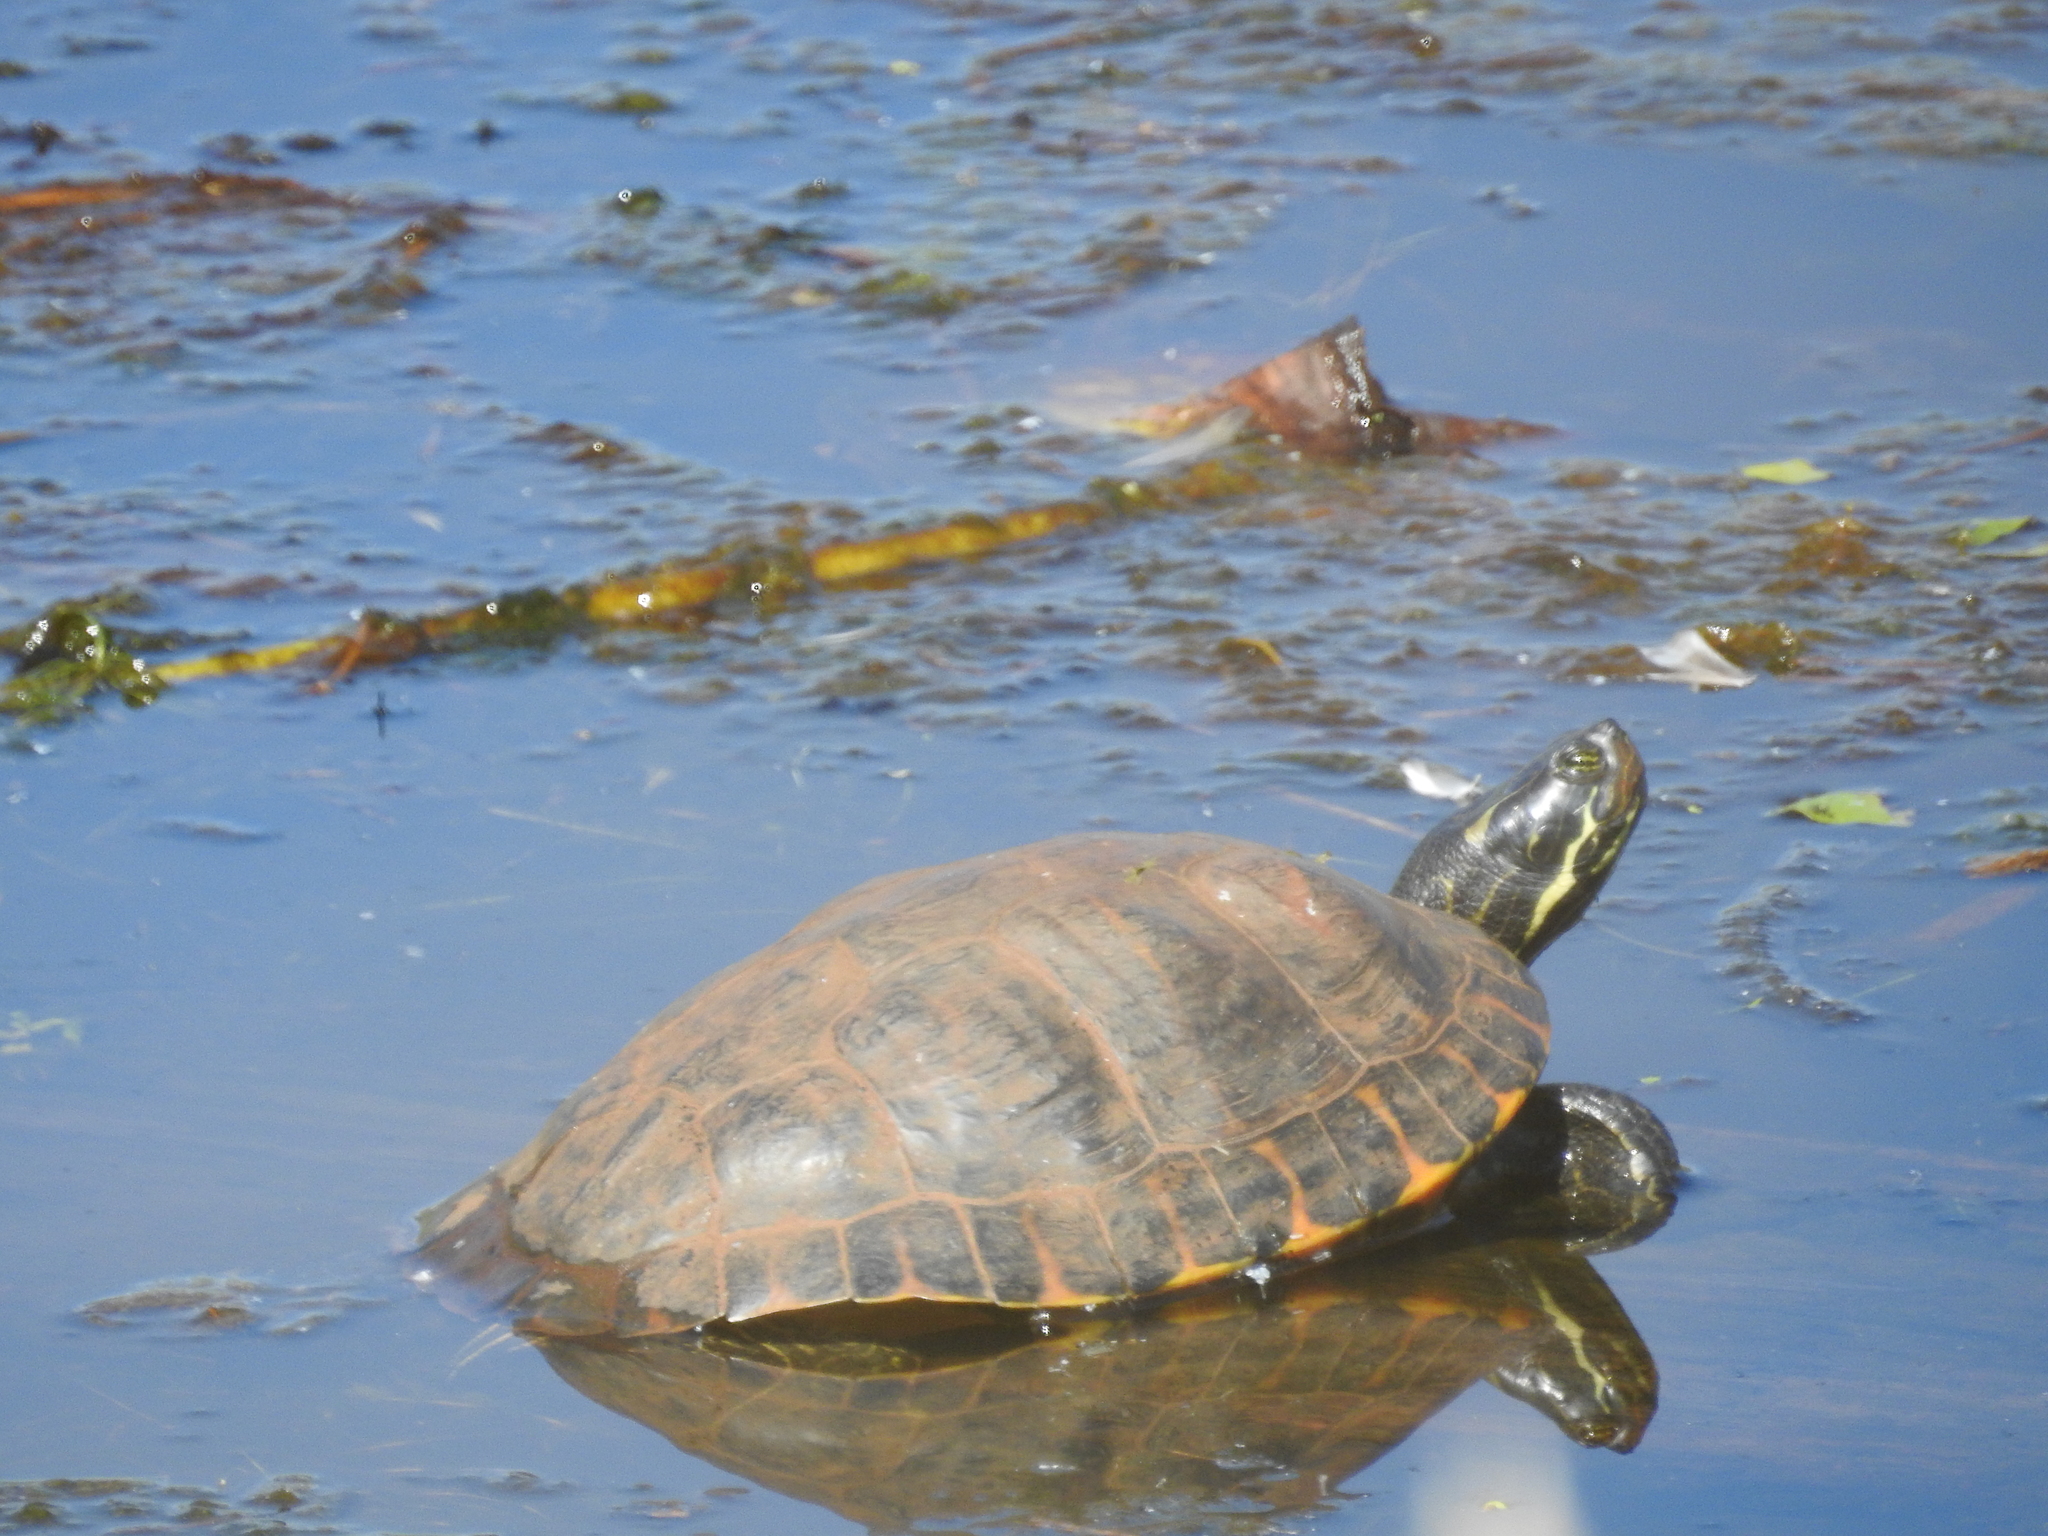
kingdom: Animalia
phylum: Chordata
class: Testudines
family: Emydidae
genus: Trachemys
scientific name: Trachemys scripta
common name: Slider
